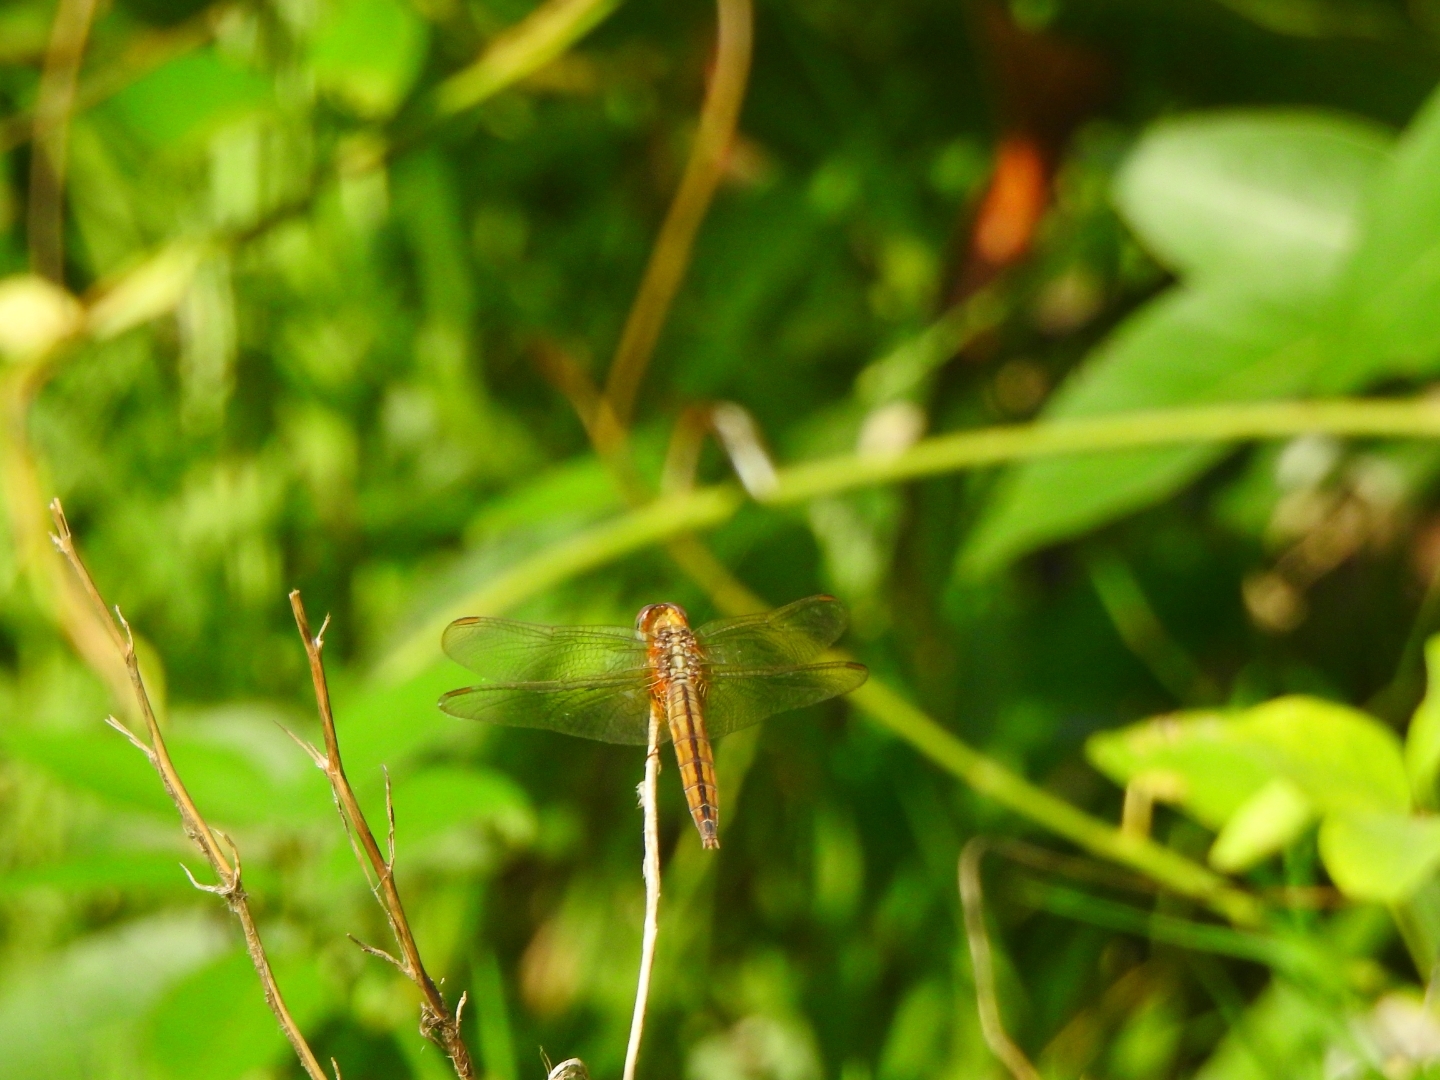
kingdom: Animalia
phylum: Arthropoda
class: Insecta
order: Odonata
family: Libellulidae
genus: Crocothemis
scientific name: Crocothemis servilia
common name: Scarlet skimmer
